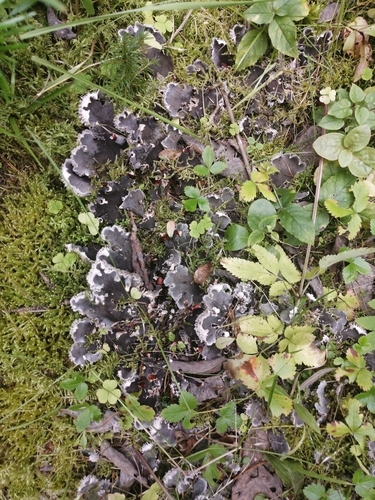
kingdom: Fungi
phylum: Ascomycota
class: Lecanoromycetes
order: Peltigerales
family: Peltigeraceae
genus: Peltigera
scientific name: Peltigera canina
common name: Dog pelt lichen
